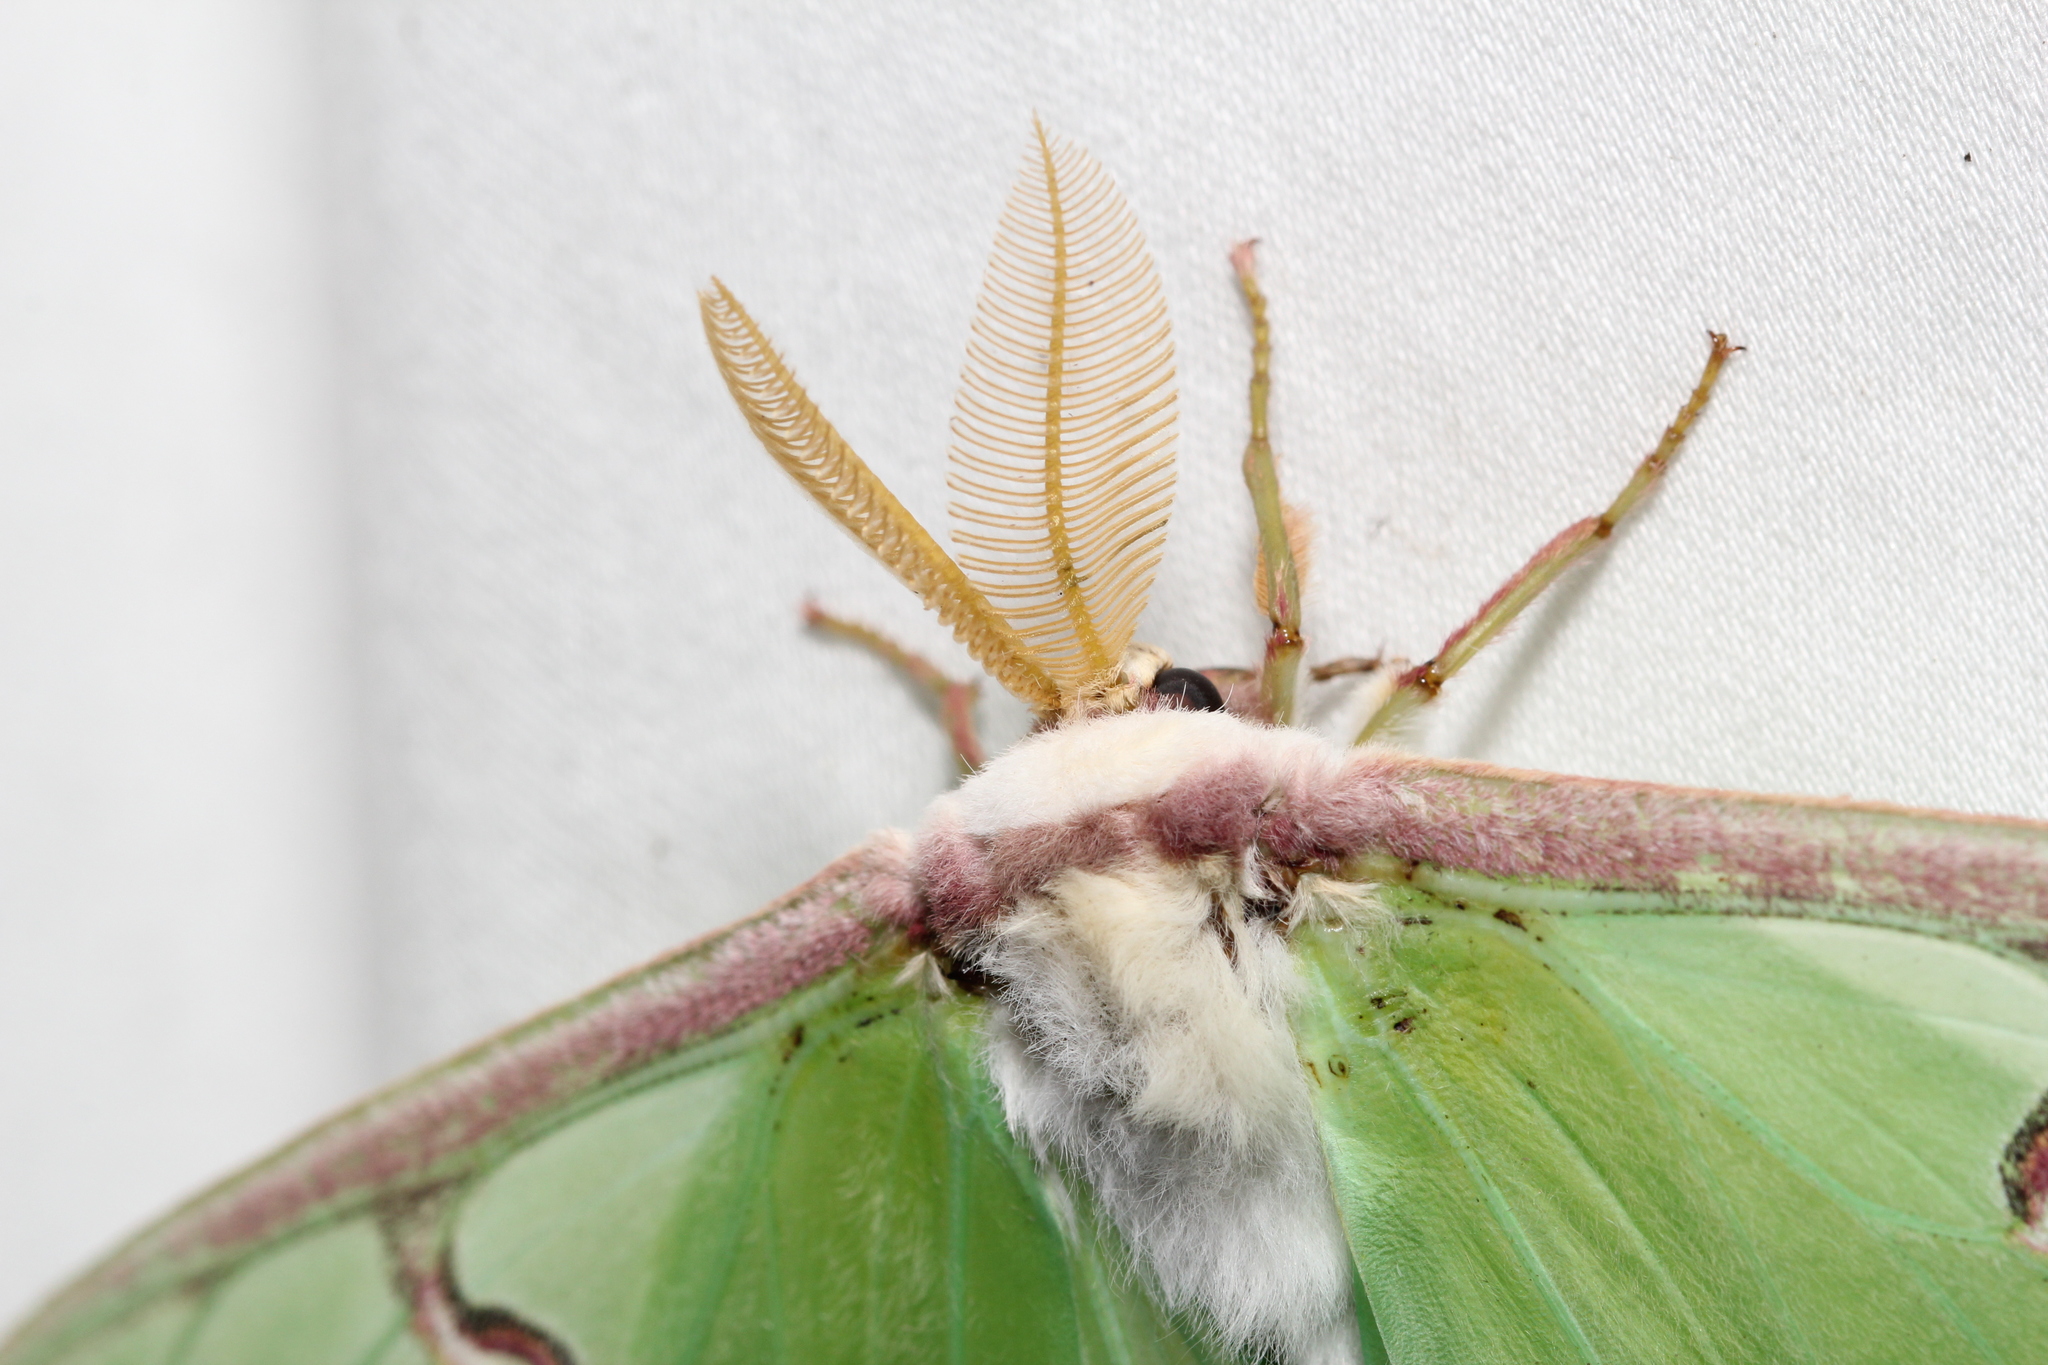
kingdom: Animalia
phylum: Arthropoda
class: Insecta
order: Lepidoptera
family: Saturniidae
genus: Actias
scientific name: Actias luna
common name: Luna moth
